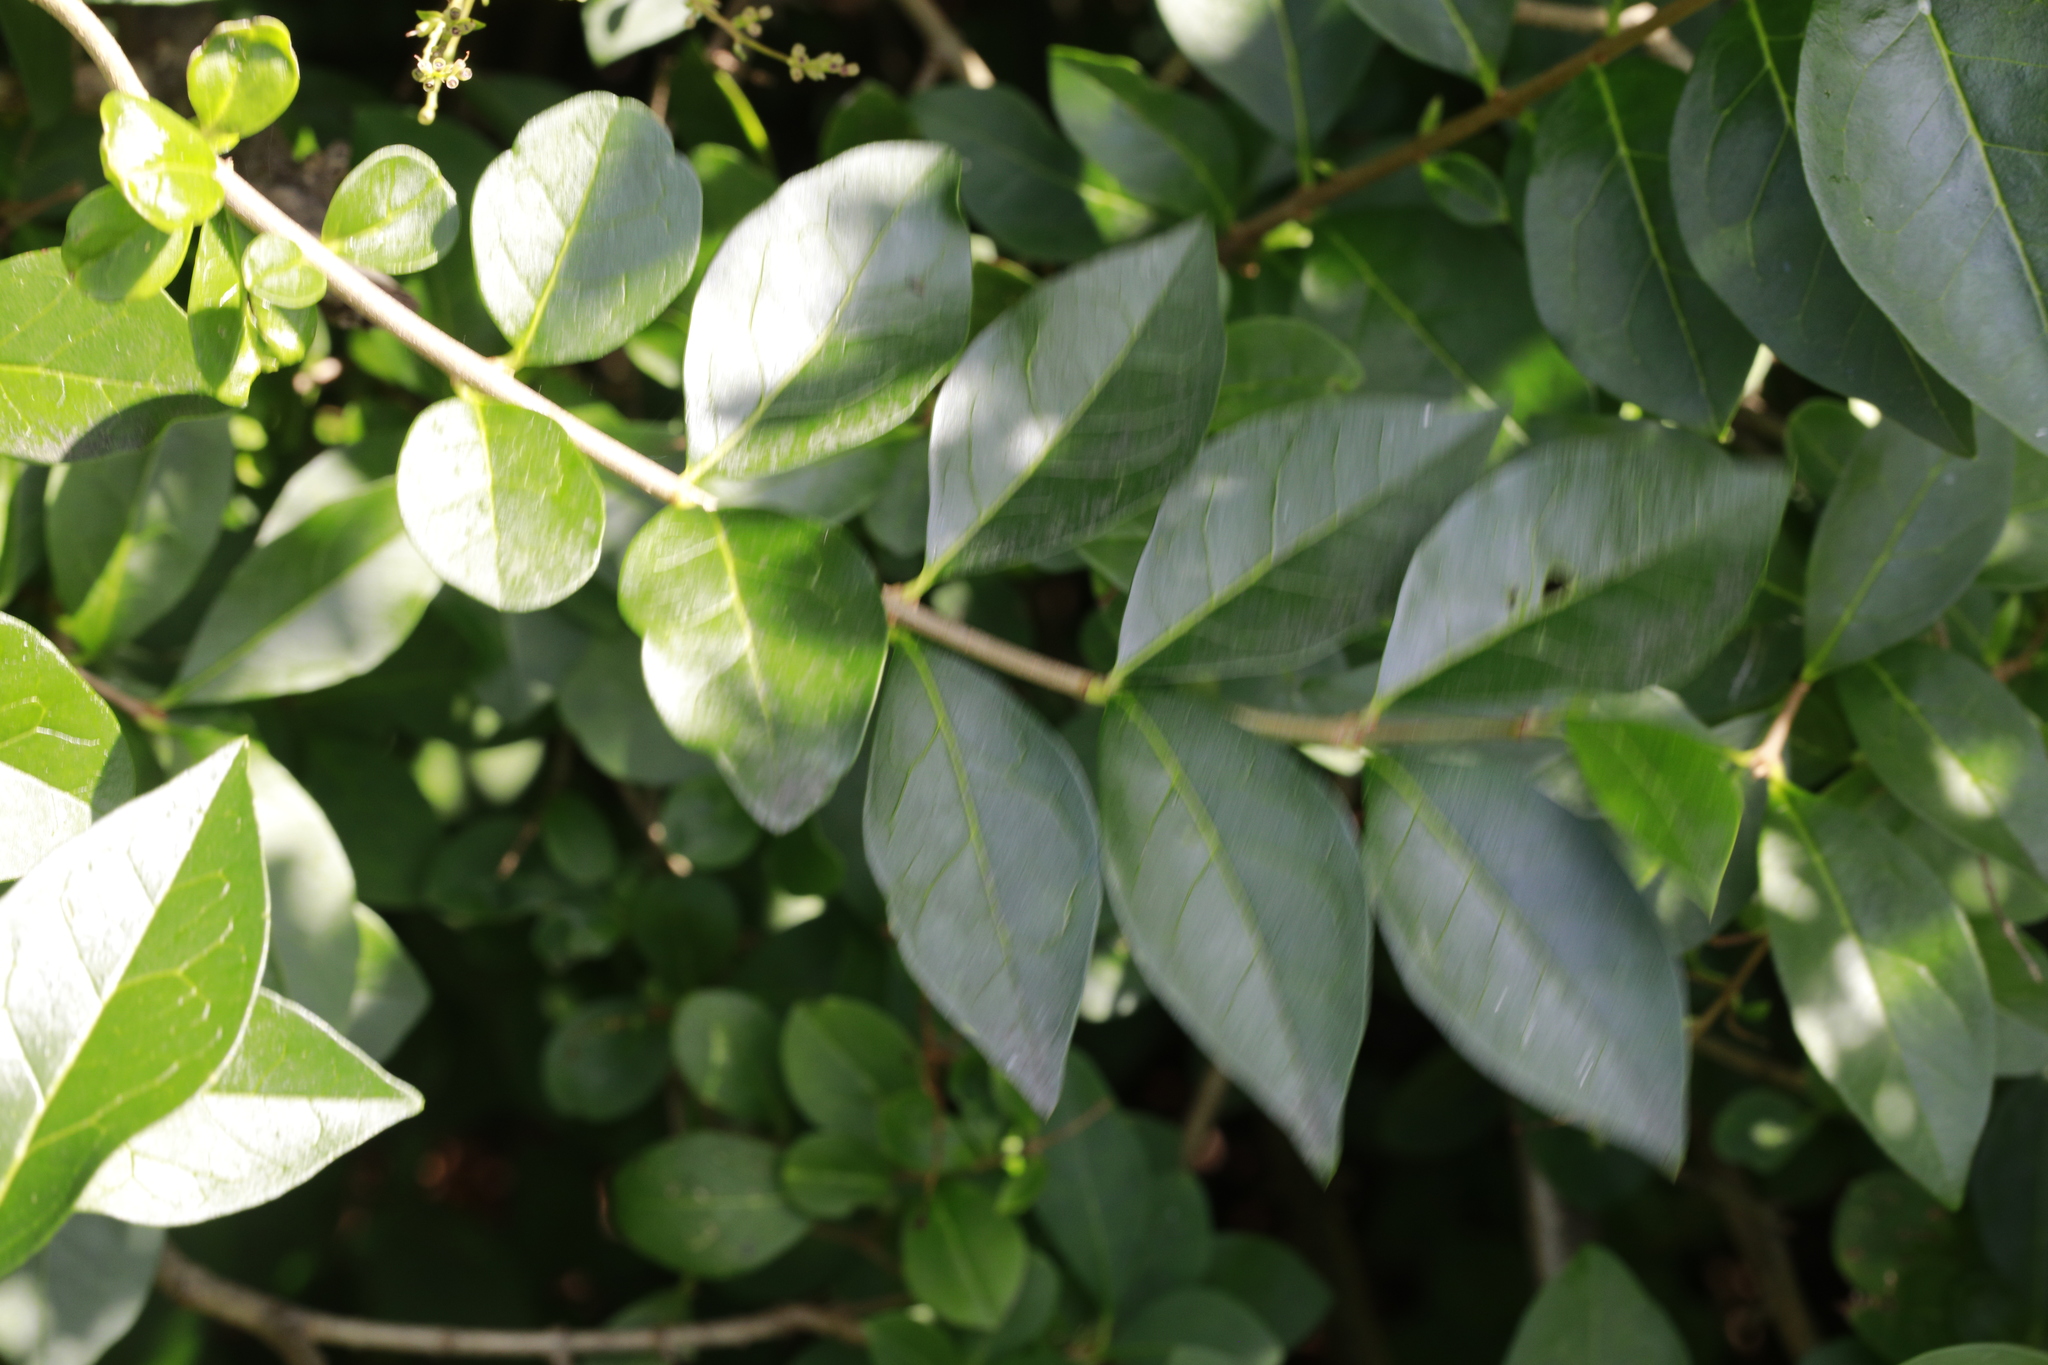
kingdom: Plantae
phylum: Tracheophyta
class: Magnoliopsida
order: Lamiales
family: Oleaceae
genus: Ligustrum
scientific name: Ligustrum ovalifolium
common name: California privet
